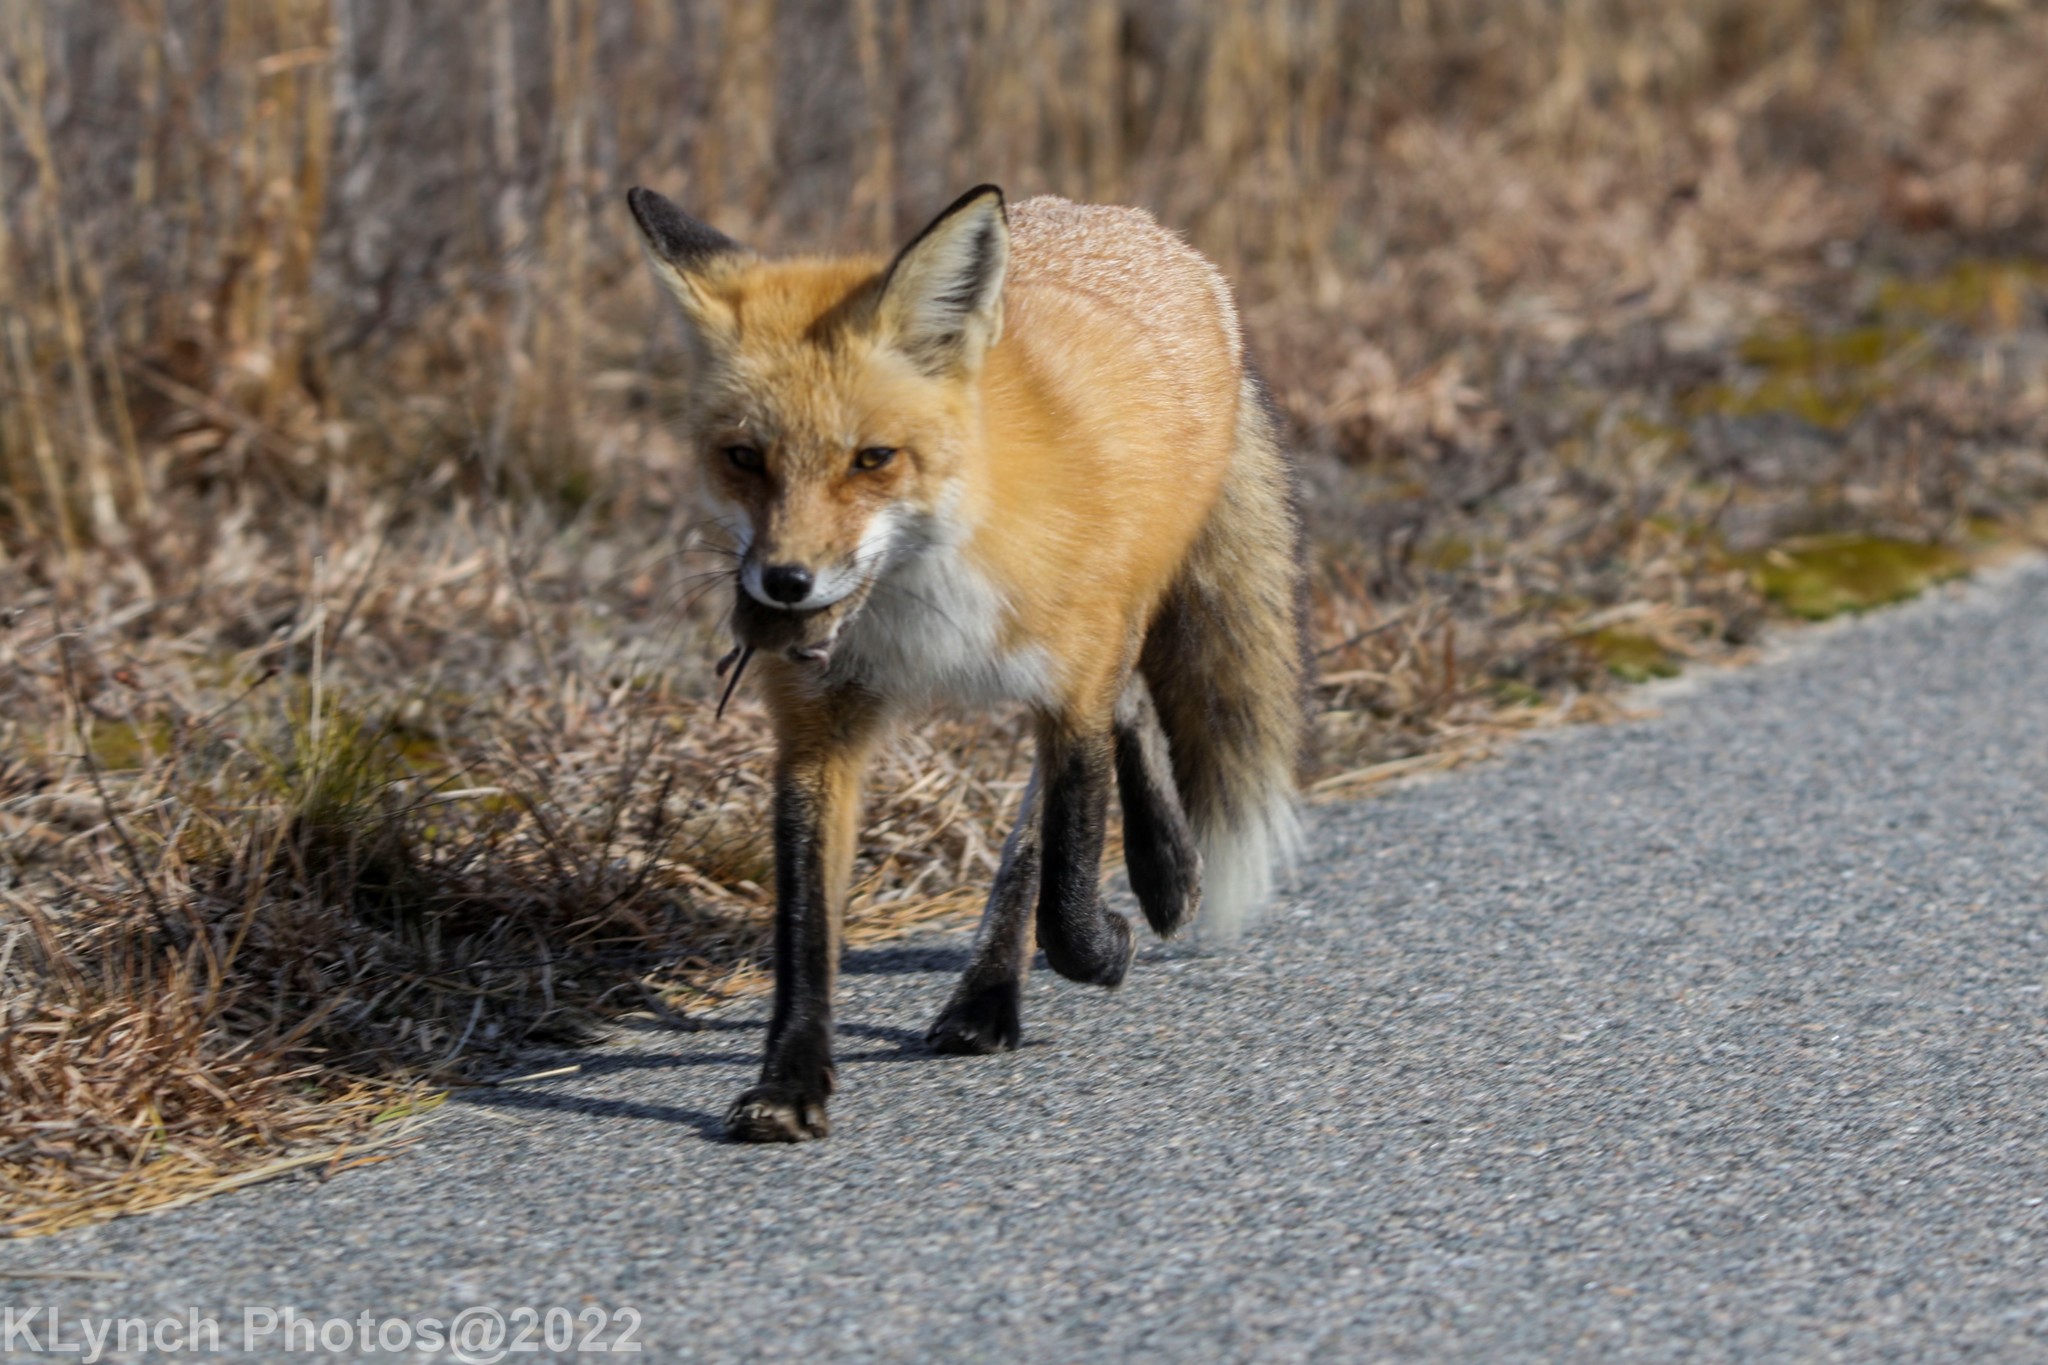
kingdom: Animalia
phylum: Chordata
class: Mammalia
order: Carnivora
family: Canidae
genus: Vulpes
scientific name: Vulpes vulpes
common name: Red fox
